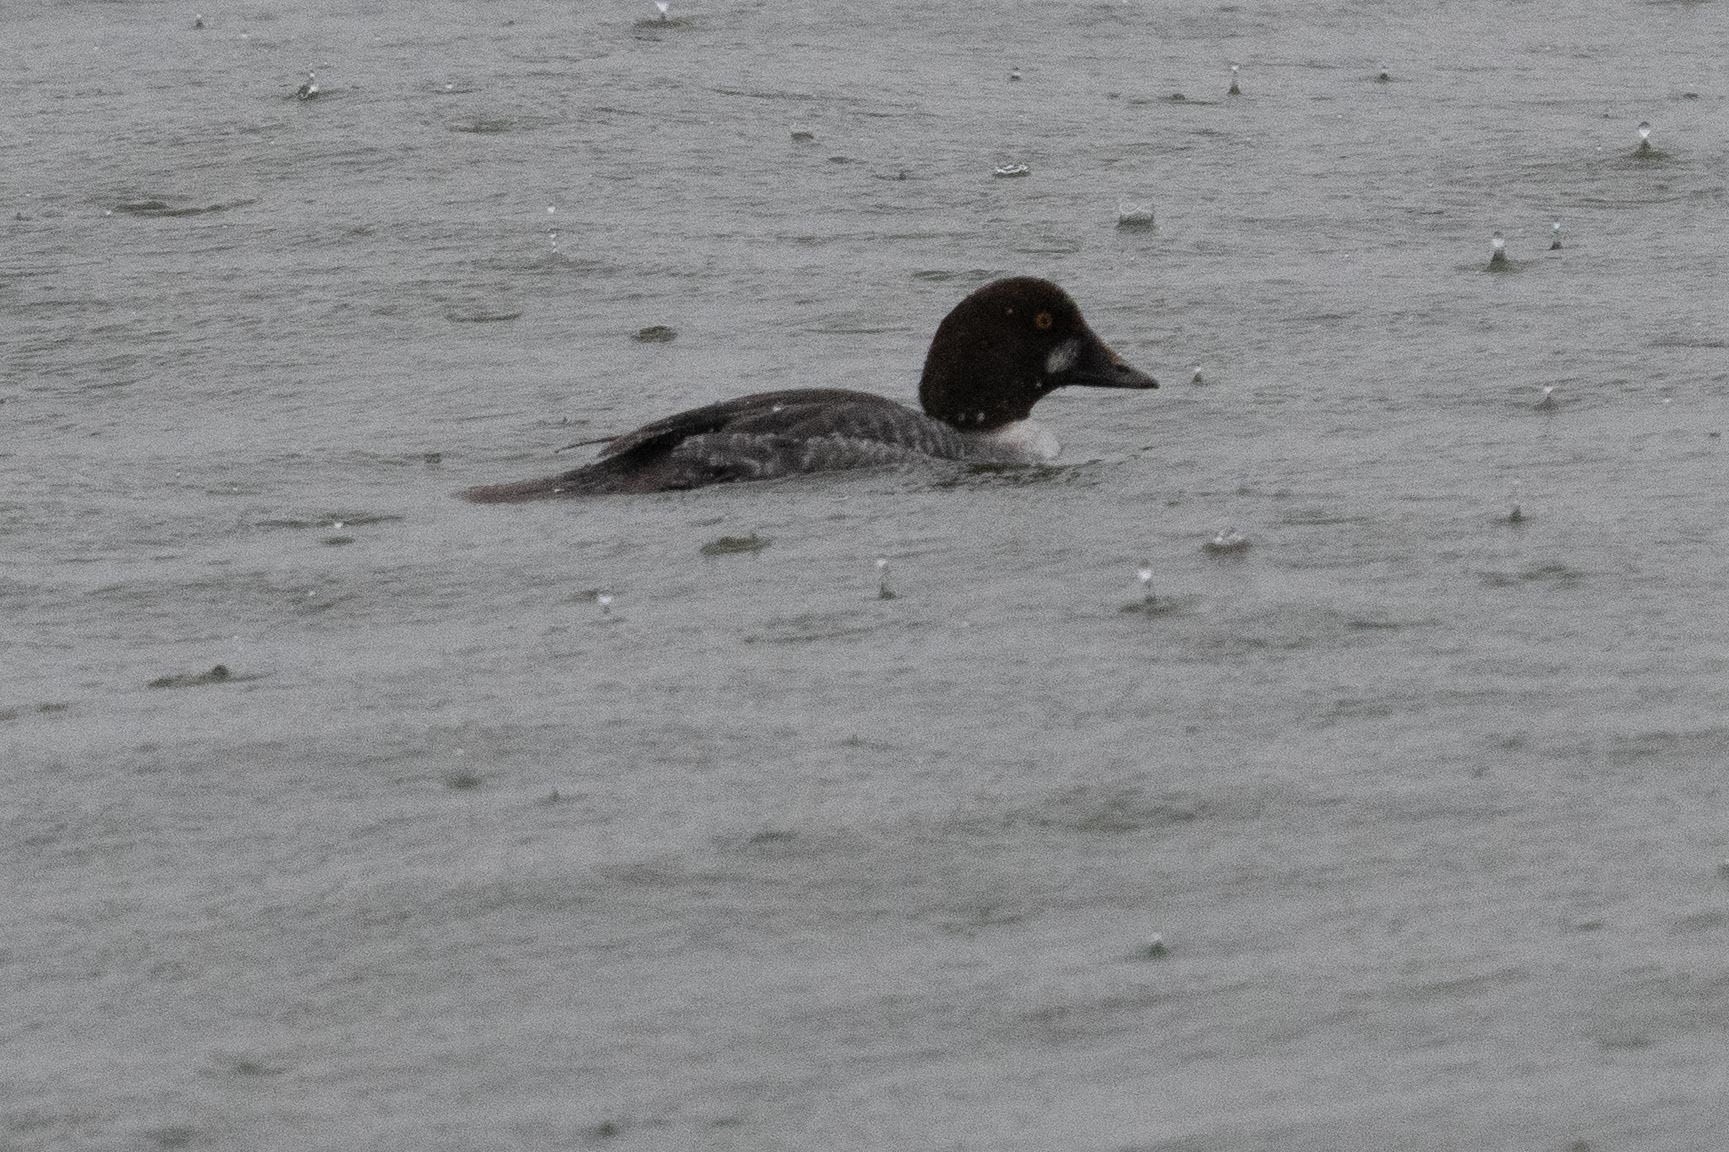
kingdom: Animalia
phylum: Chordata
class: Aves
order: Anseriformes
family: Anatidae
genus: Bucephala
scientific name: Bucephala clangula
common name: Common goldeneye
